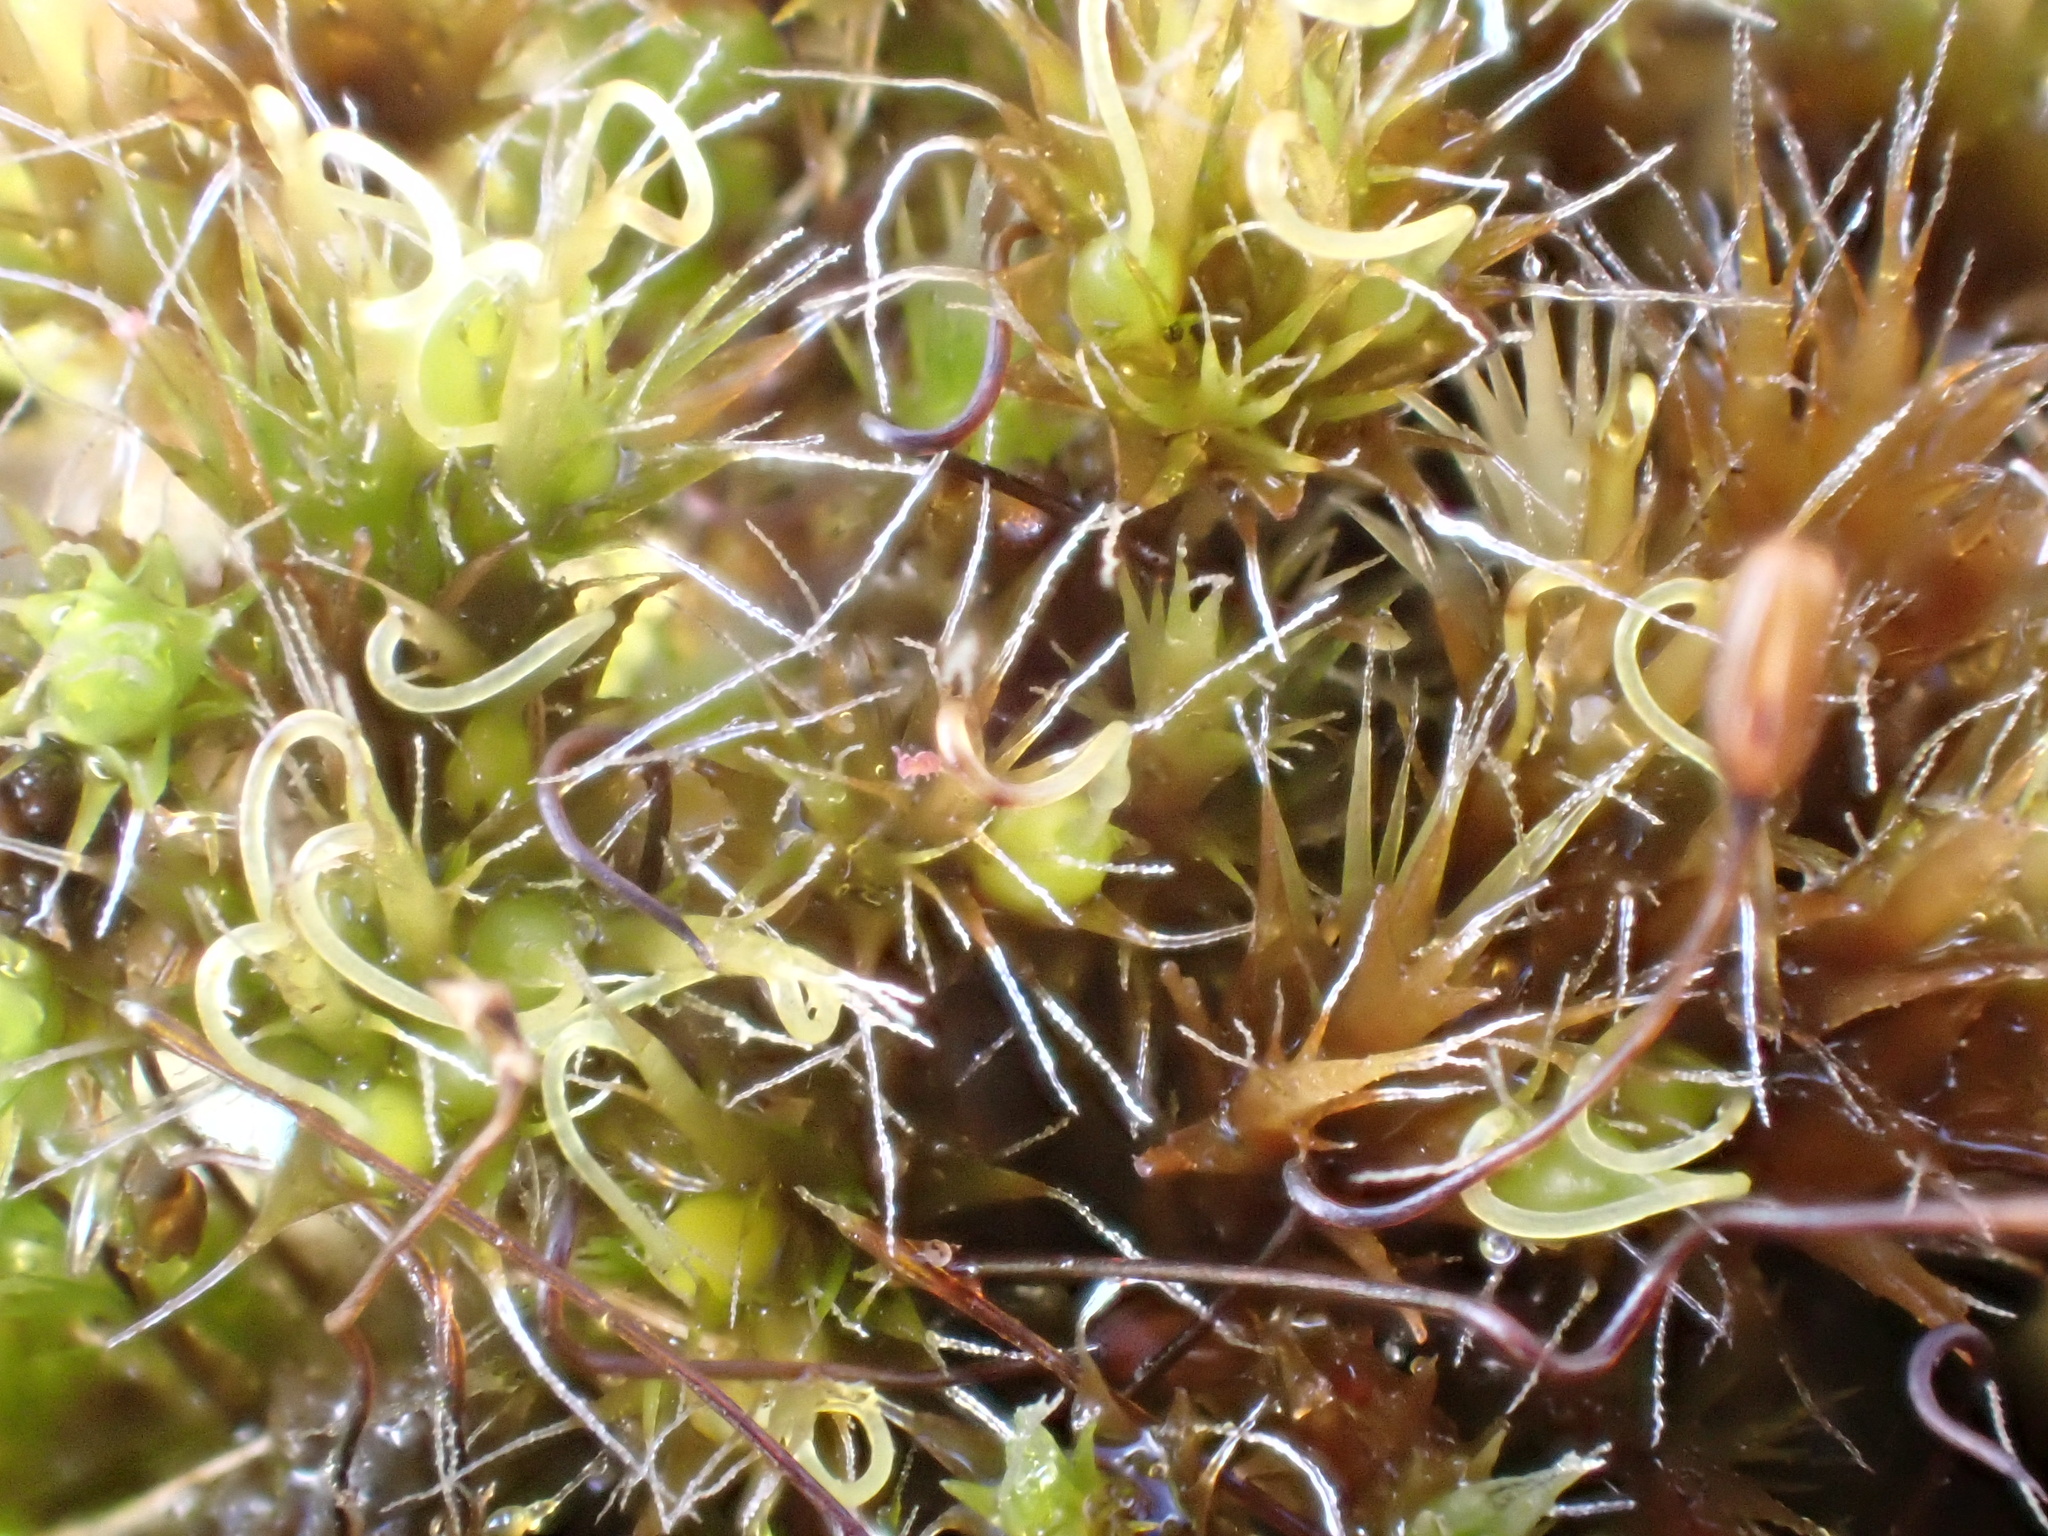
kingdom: Plantae
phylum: Bryophyta
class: Bryopsida
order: Dicranales
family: Leucobryaceae
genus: Campylopus
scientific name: Campylopus introflexus
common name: Heath star moss
